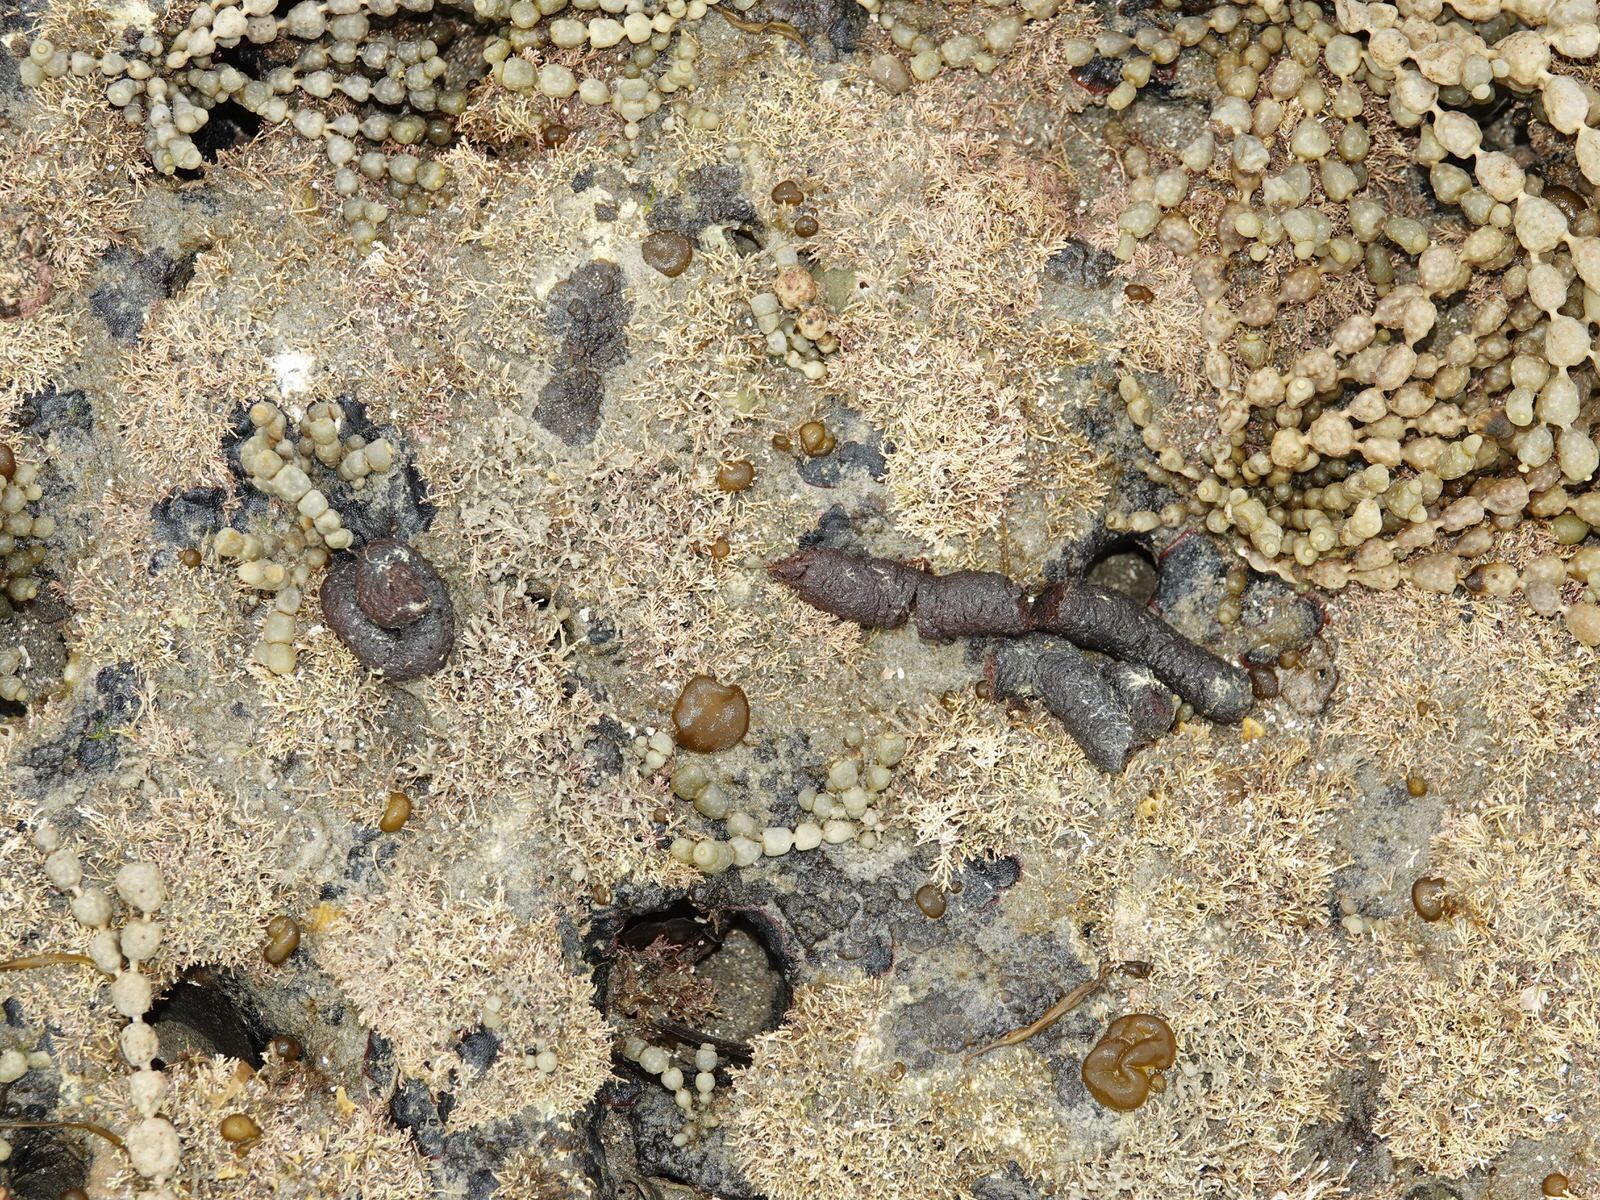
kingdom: Animalia
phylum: Chordata
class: Aves
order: Anseriformes
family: Anatidae
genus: Branta
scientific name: Branta canadensis
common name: Canada goose
